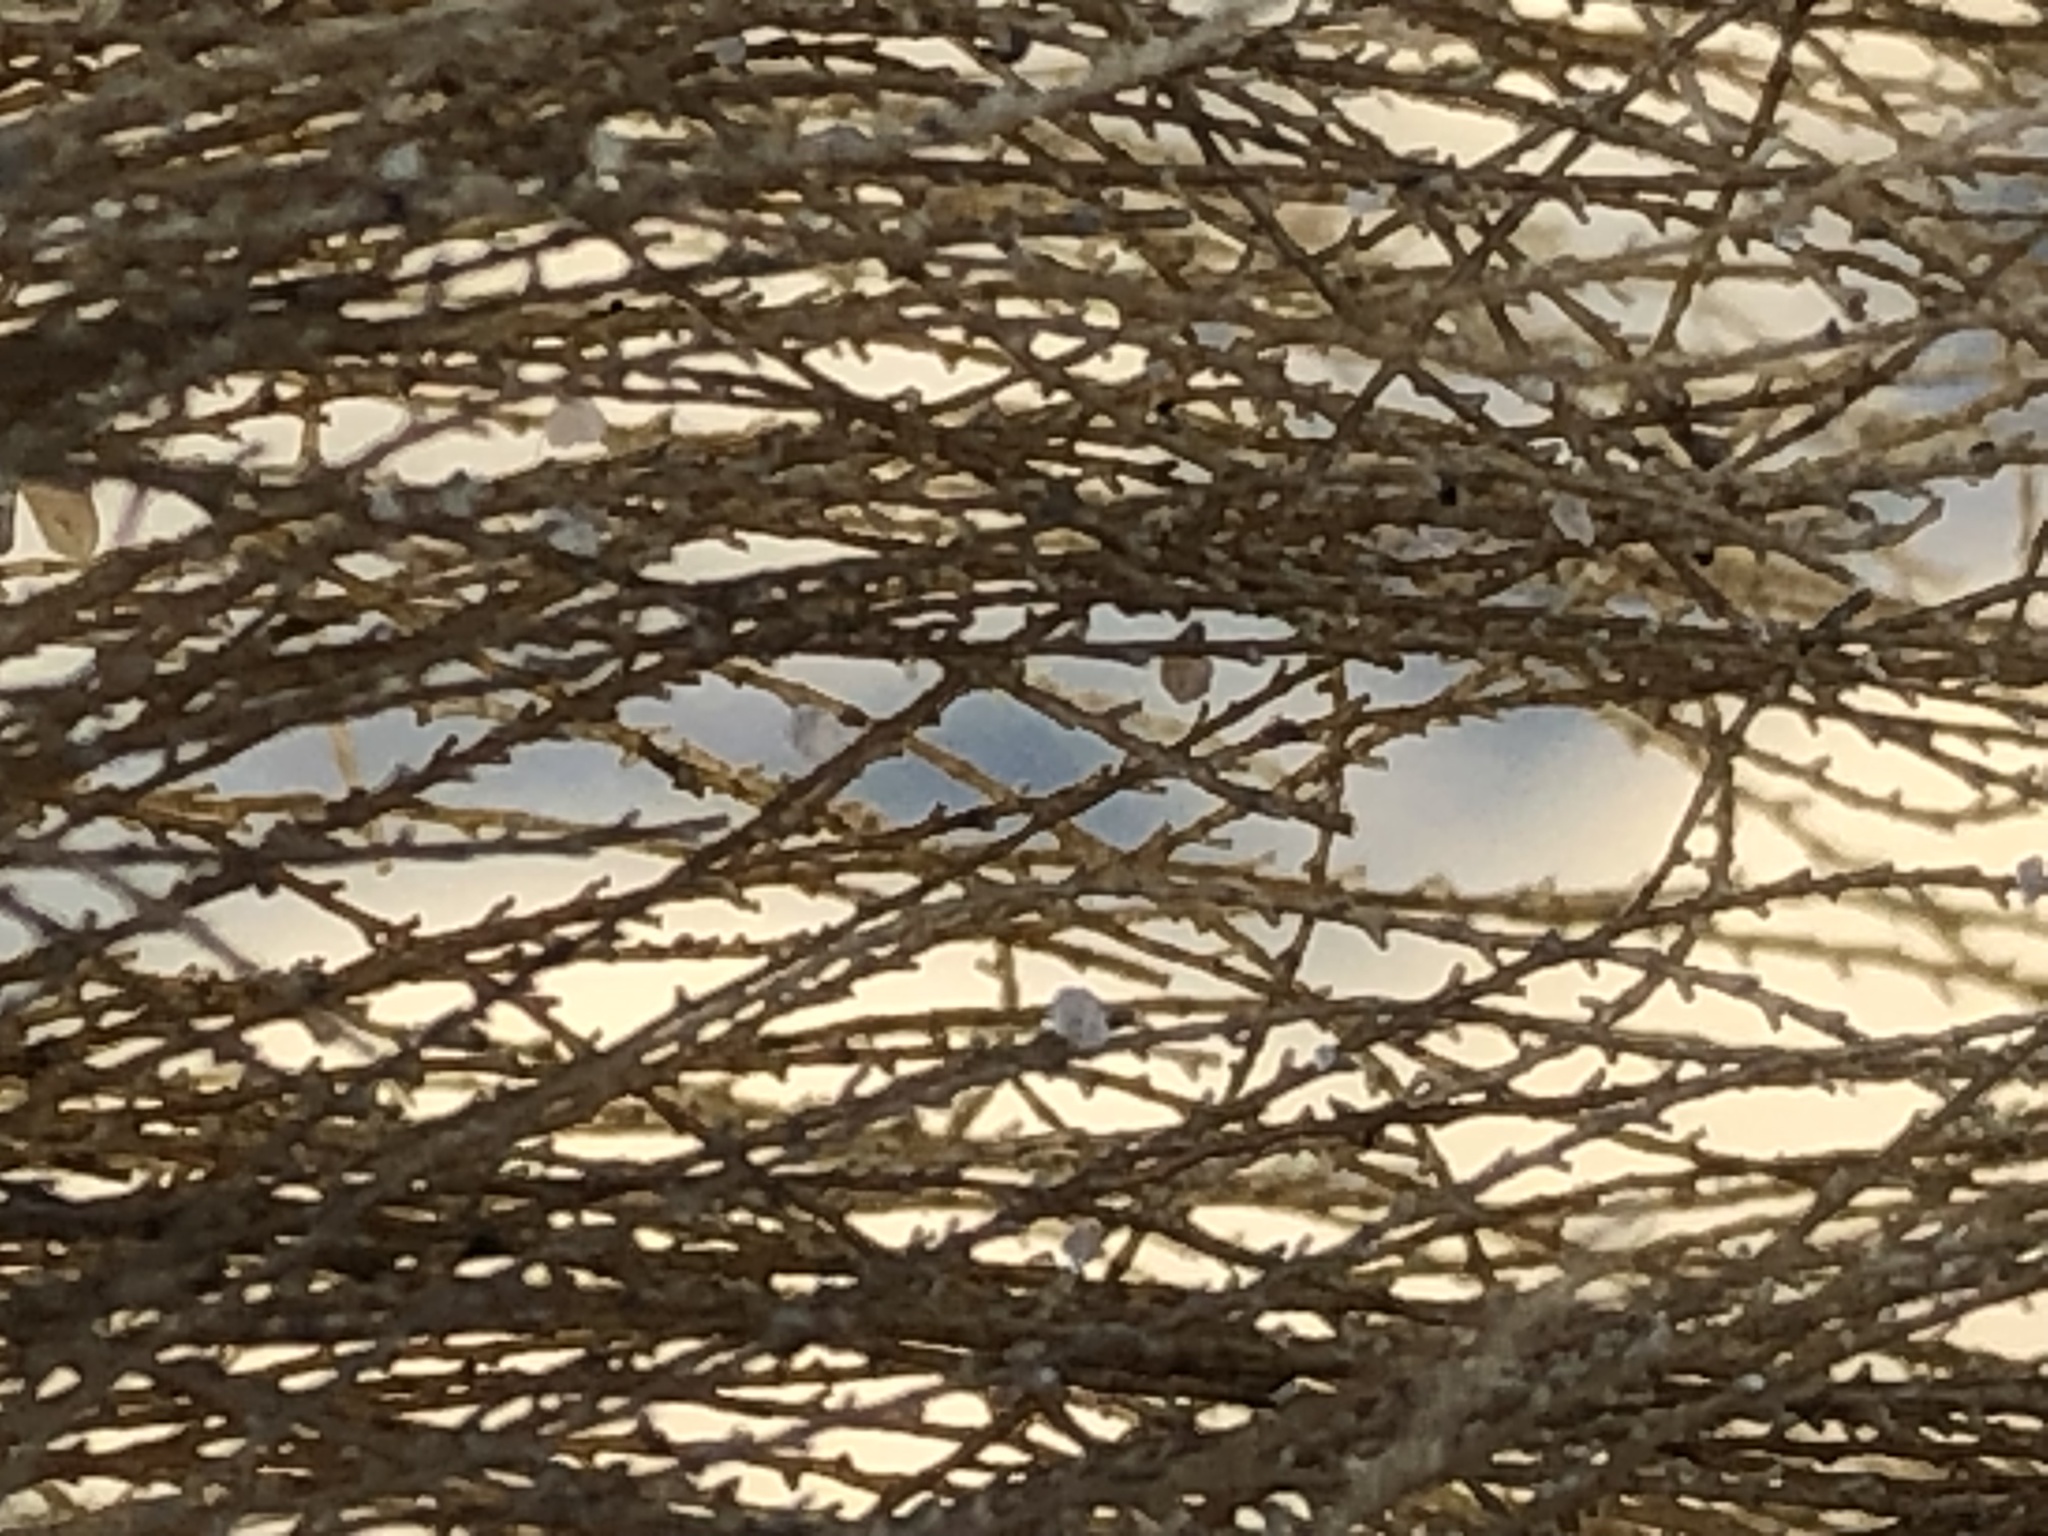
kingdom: Chromista
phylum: Ochrophyta
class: Phaeophyceae
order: Laminariales
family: Alariaceae
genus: Pterygophora
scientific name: Pterygophora californica
